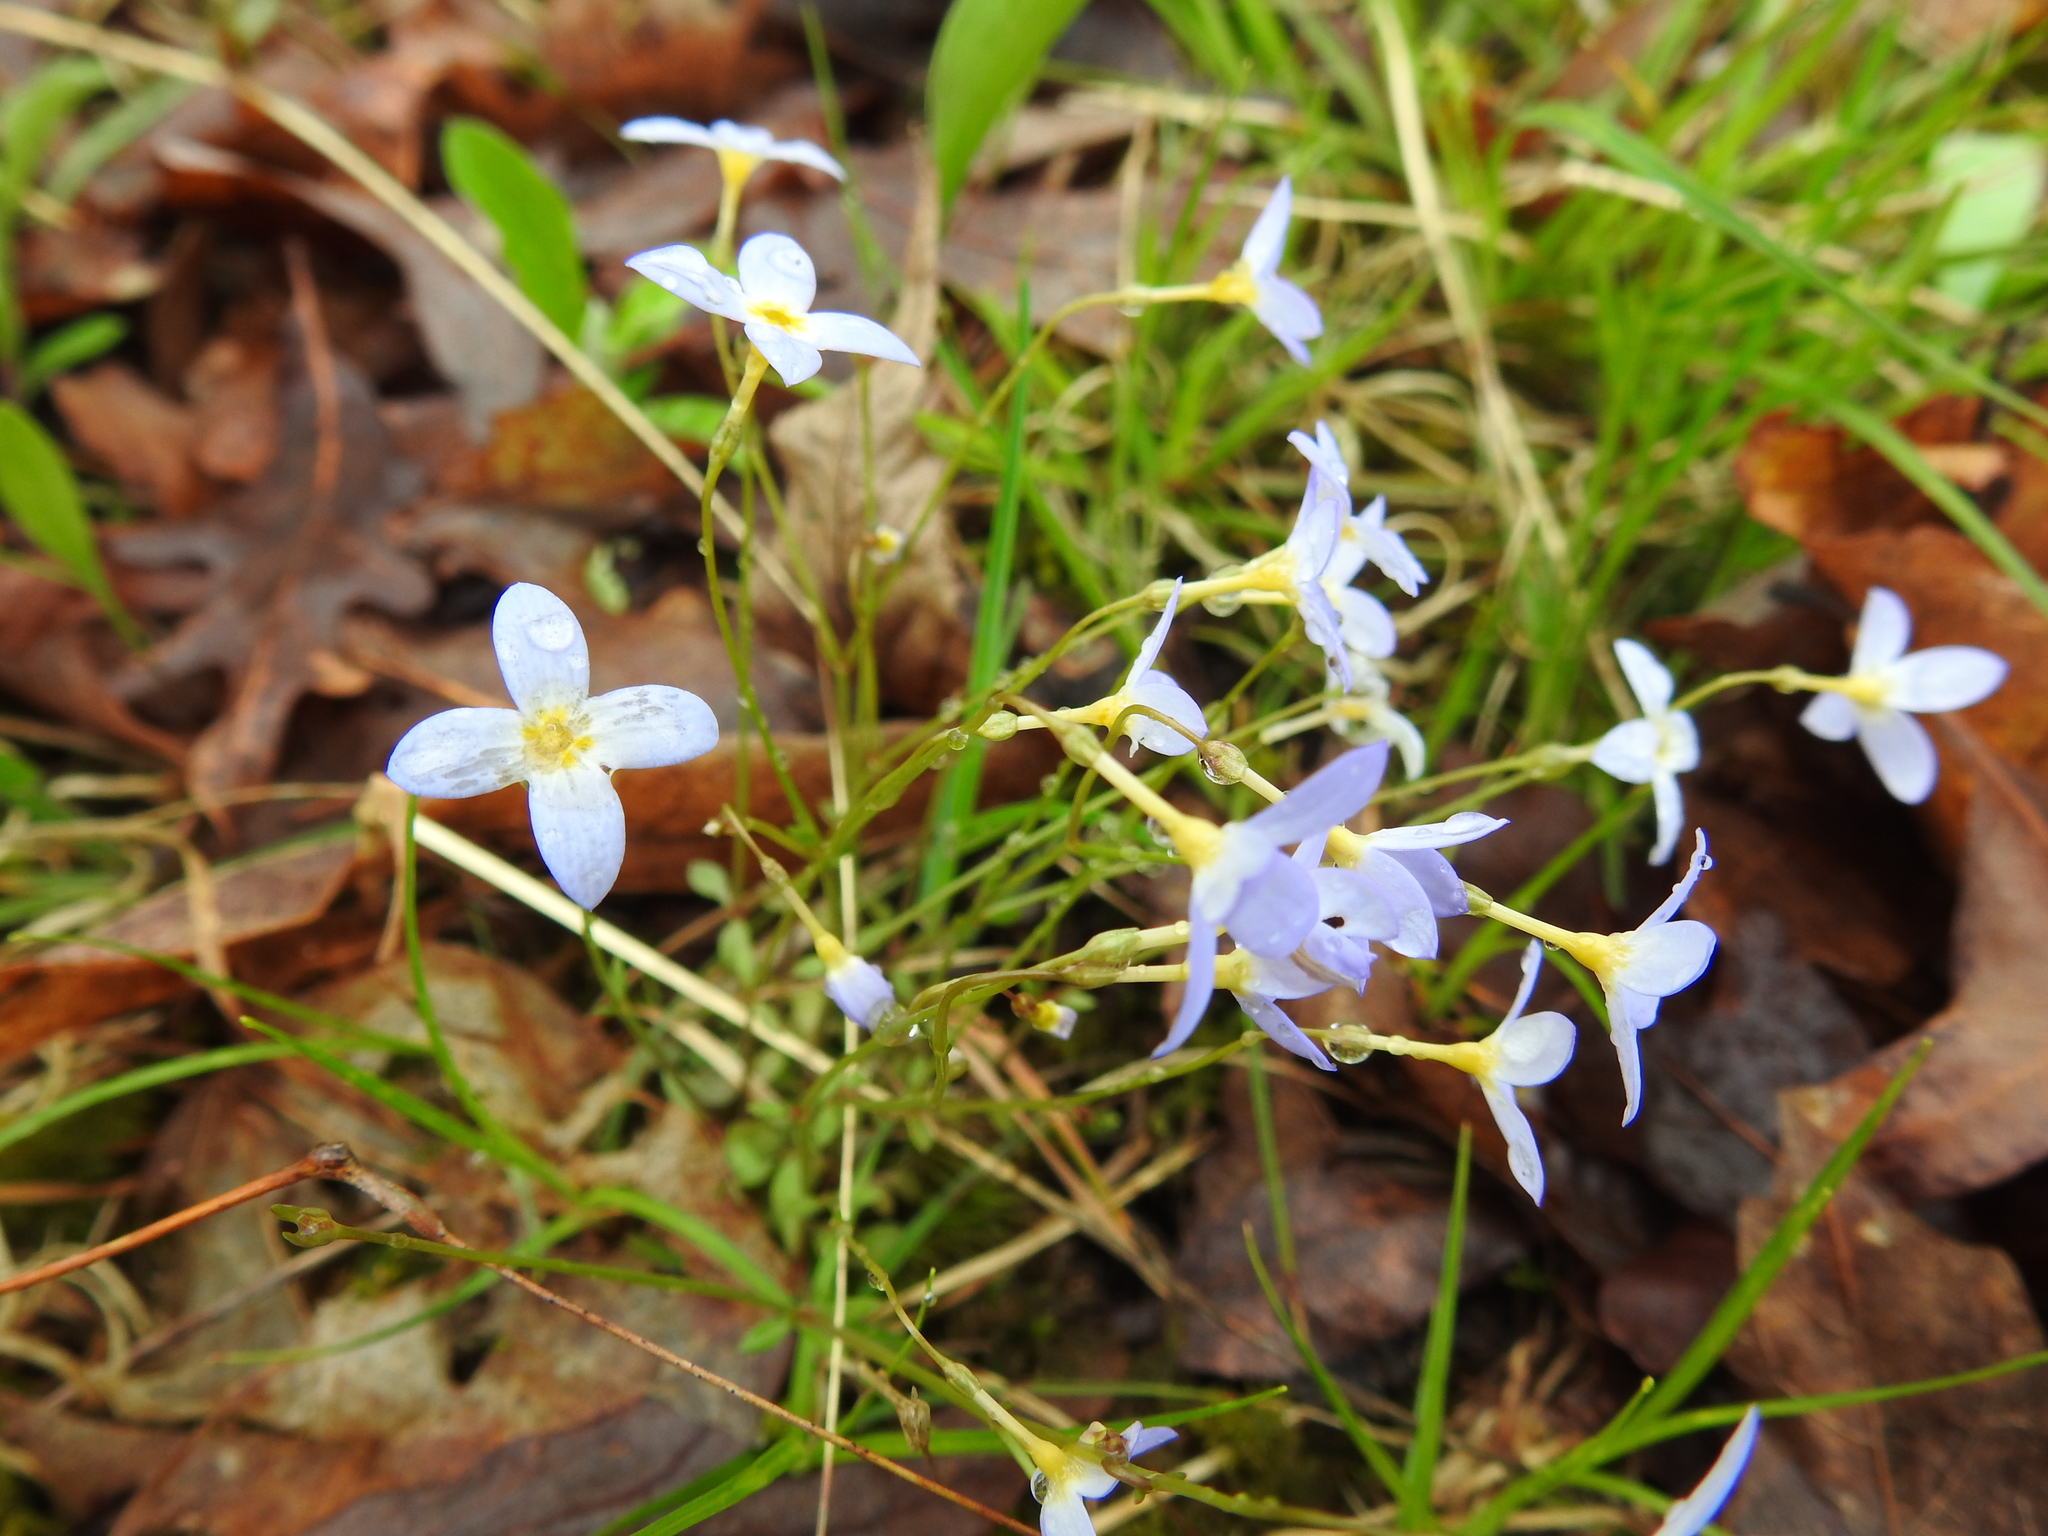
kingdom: Plantae
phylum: Tracheophyta
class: Magnoliopsida
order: Gentianales
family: Rubiaceae
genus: Houstonia
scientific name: Houstonia caerulea
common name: Bluets
